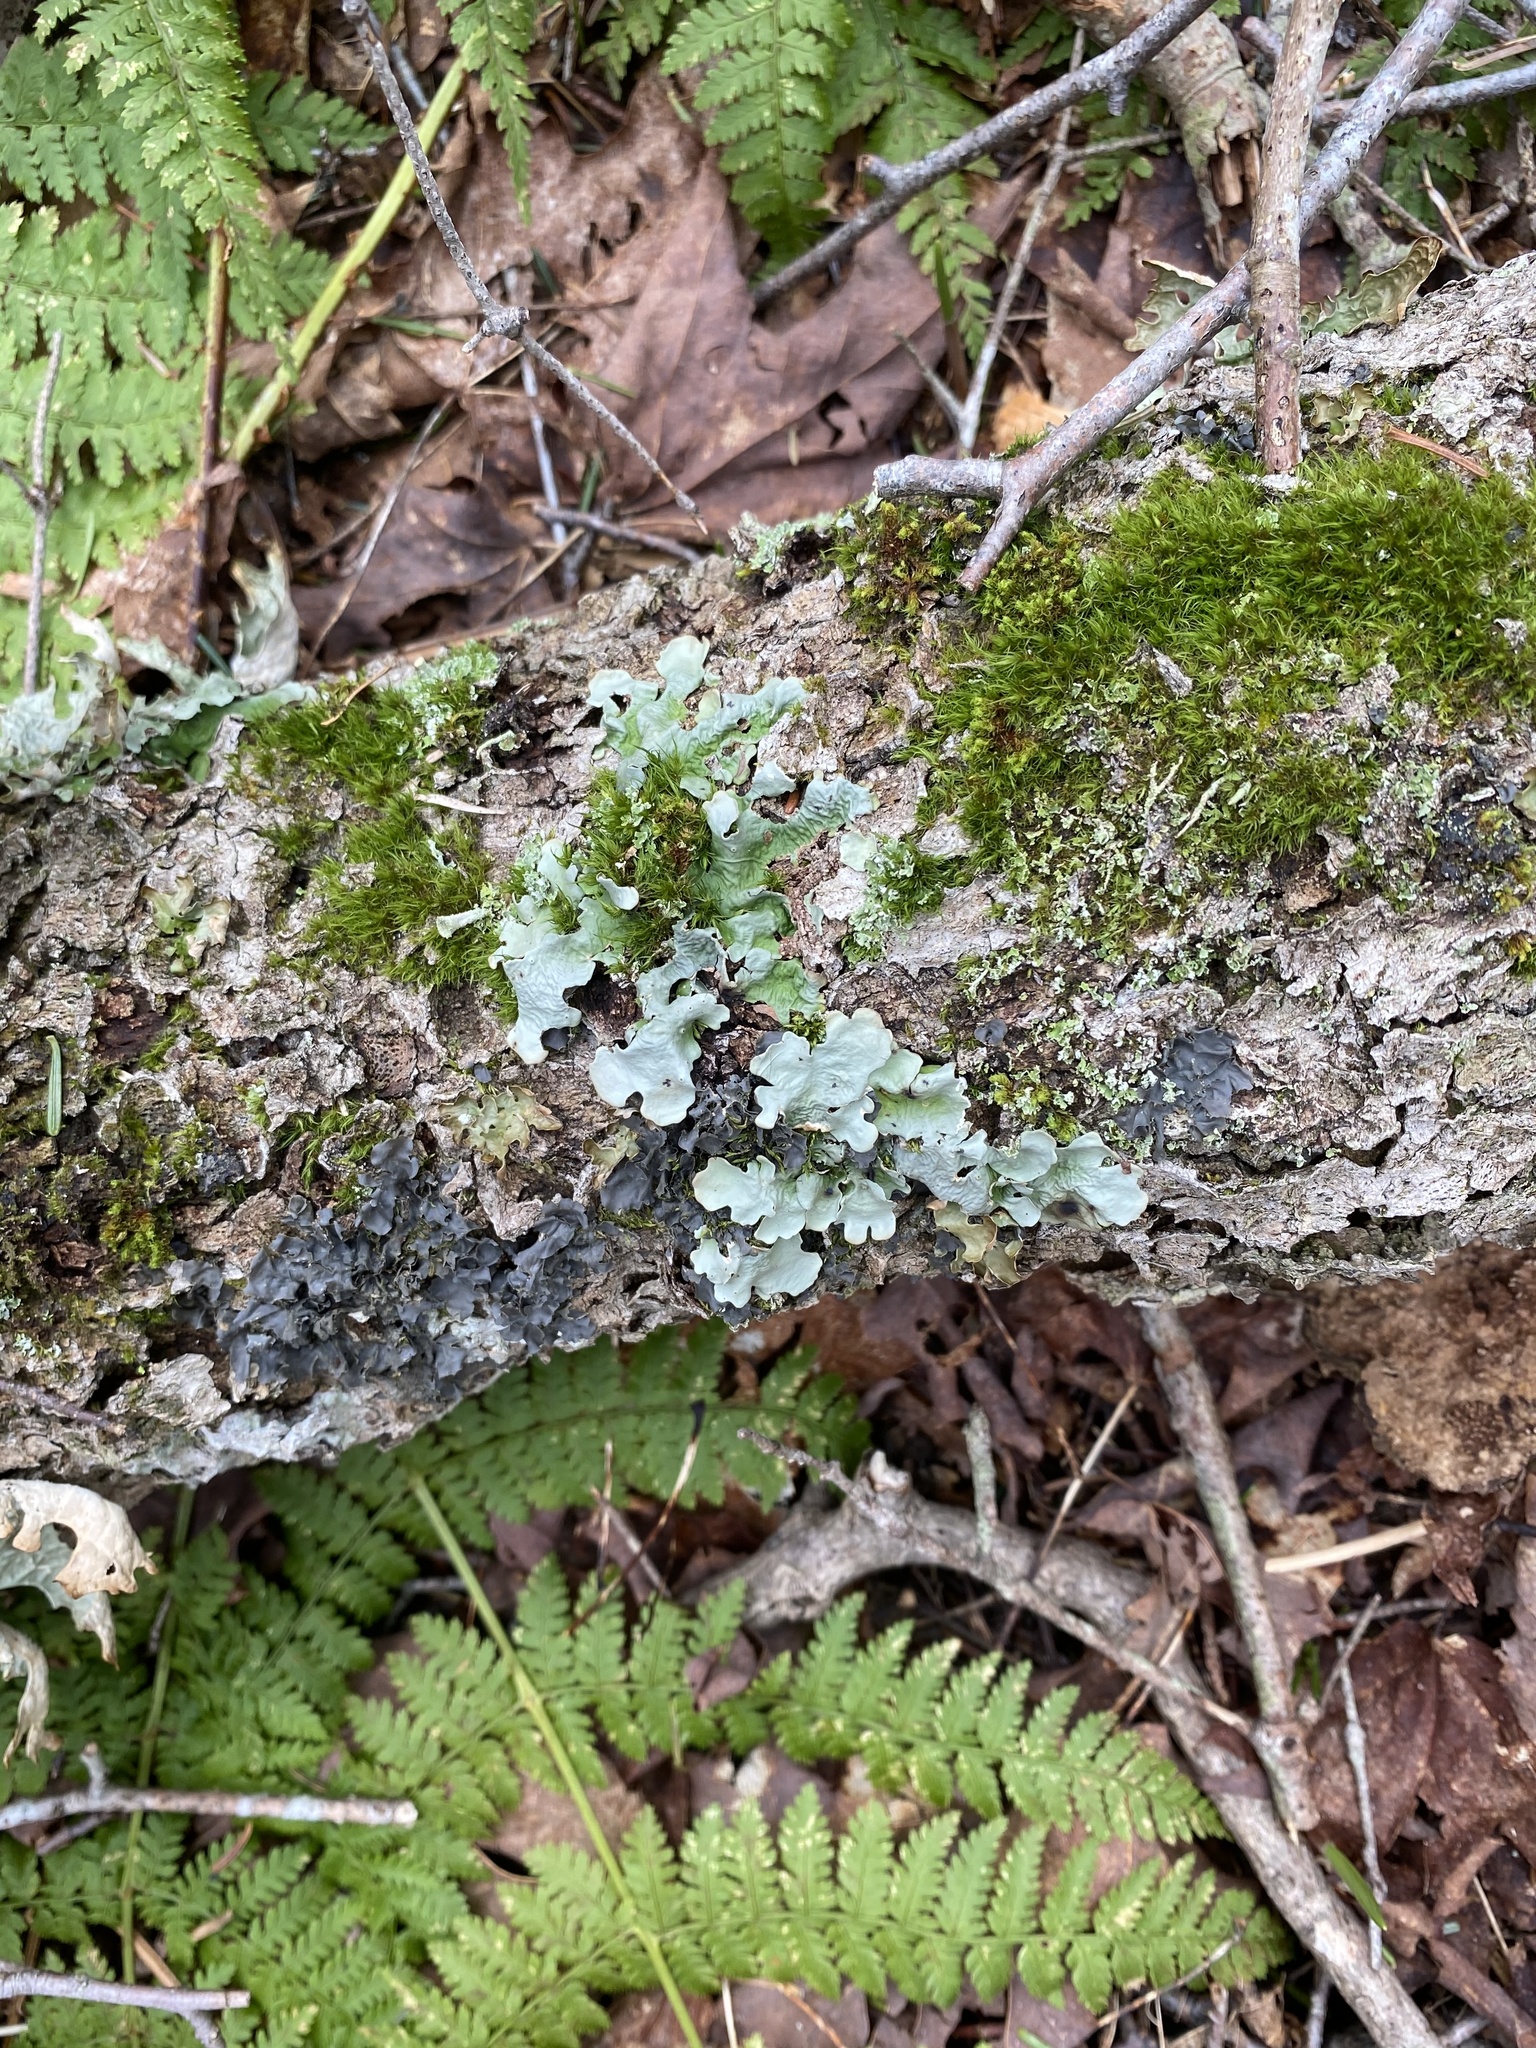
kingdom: Fungi
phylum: Ascomycota
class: Lecanoromycetes
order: Peltigerales
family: Lobariaceae
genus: Lobarina
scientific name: Lobarina scrobiculata
